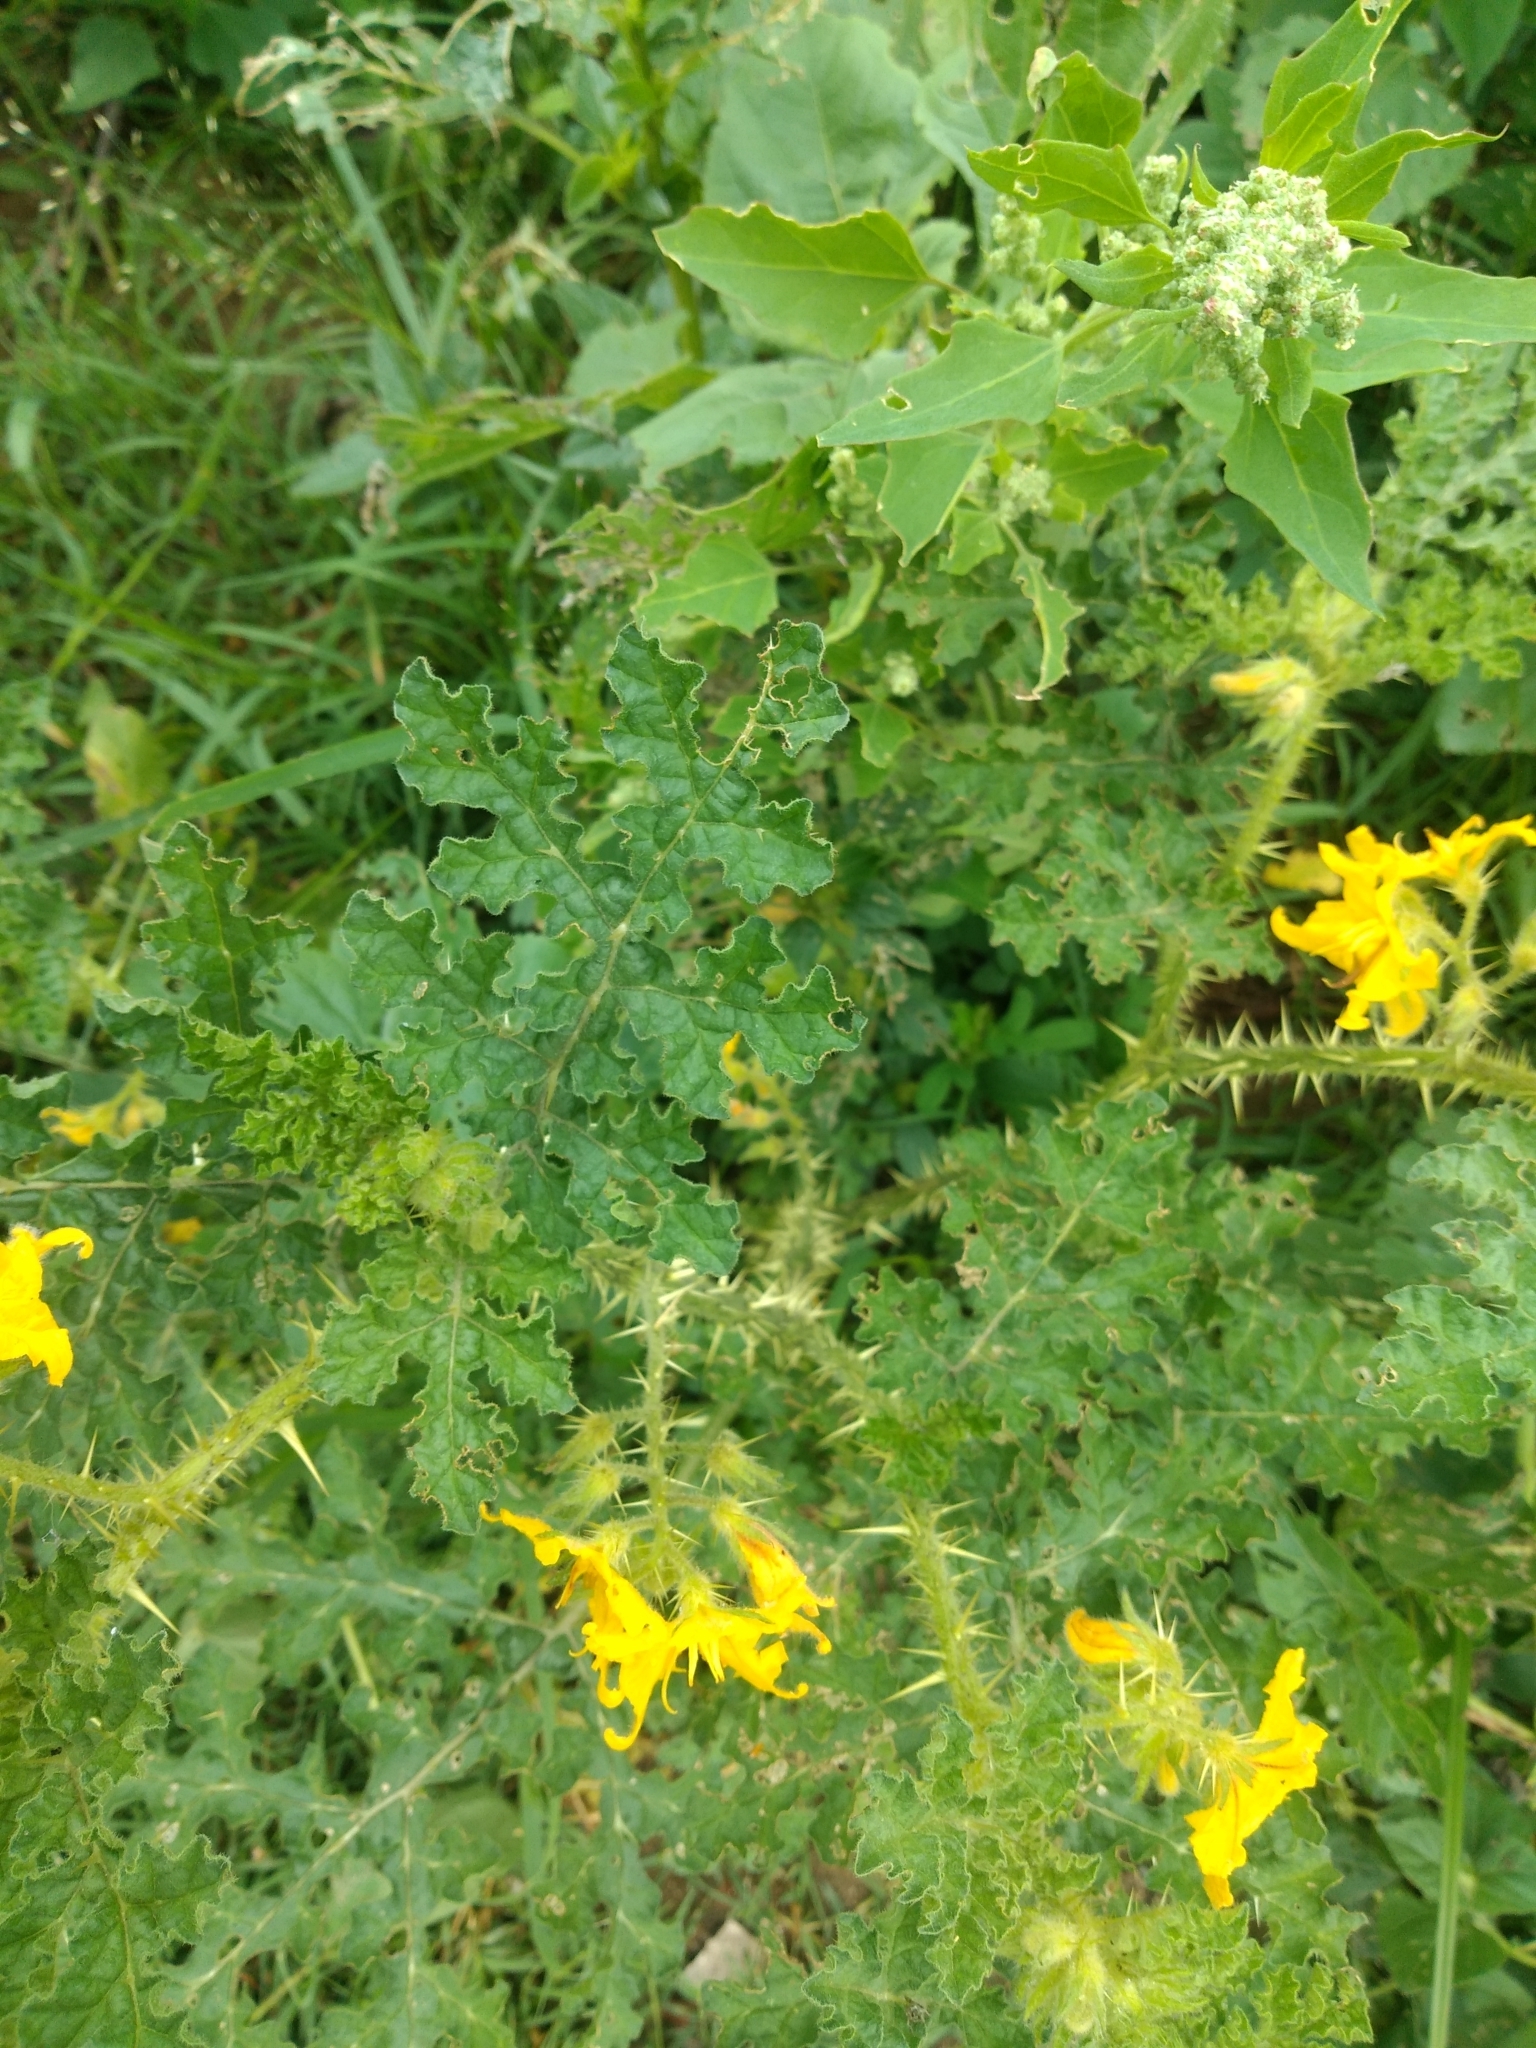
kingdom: Plantae
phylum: Tracheophyta
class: Magnoliopsida
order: Solanales
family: Solanaceae
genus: Solanum
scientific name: Solanum angustifolium
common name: Buffalobur nightshade
